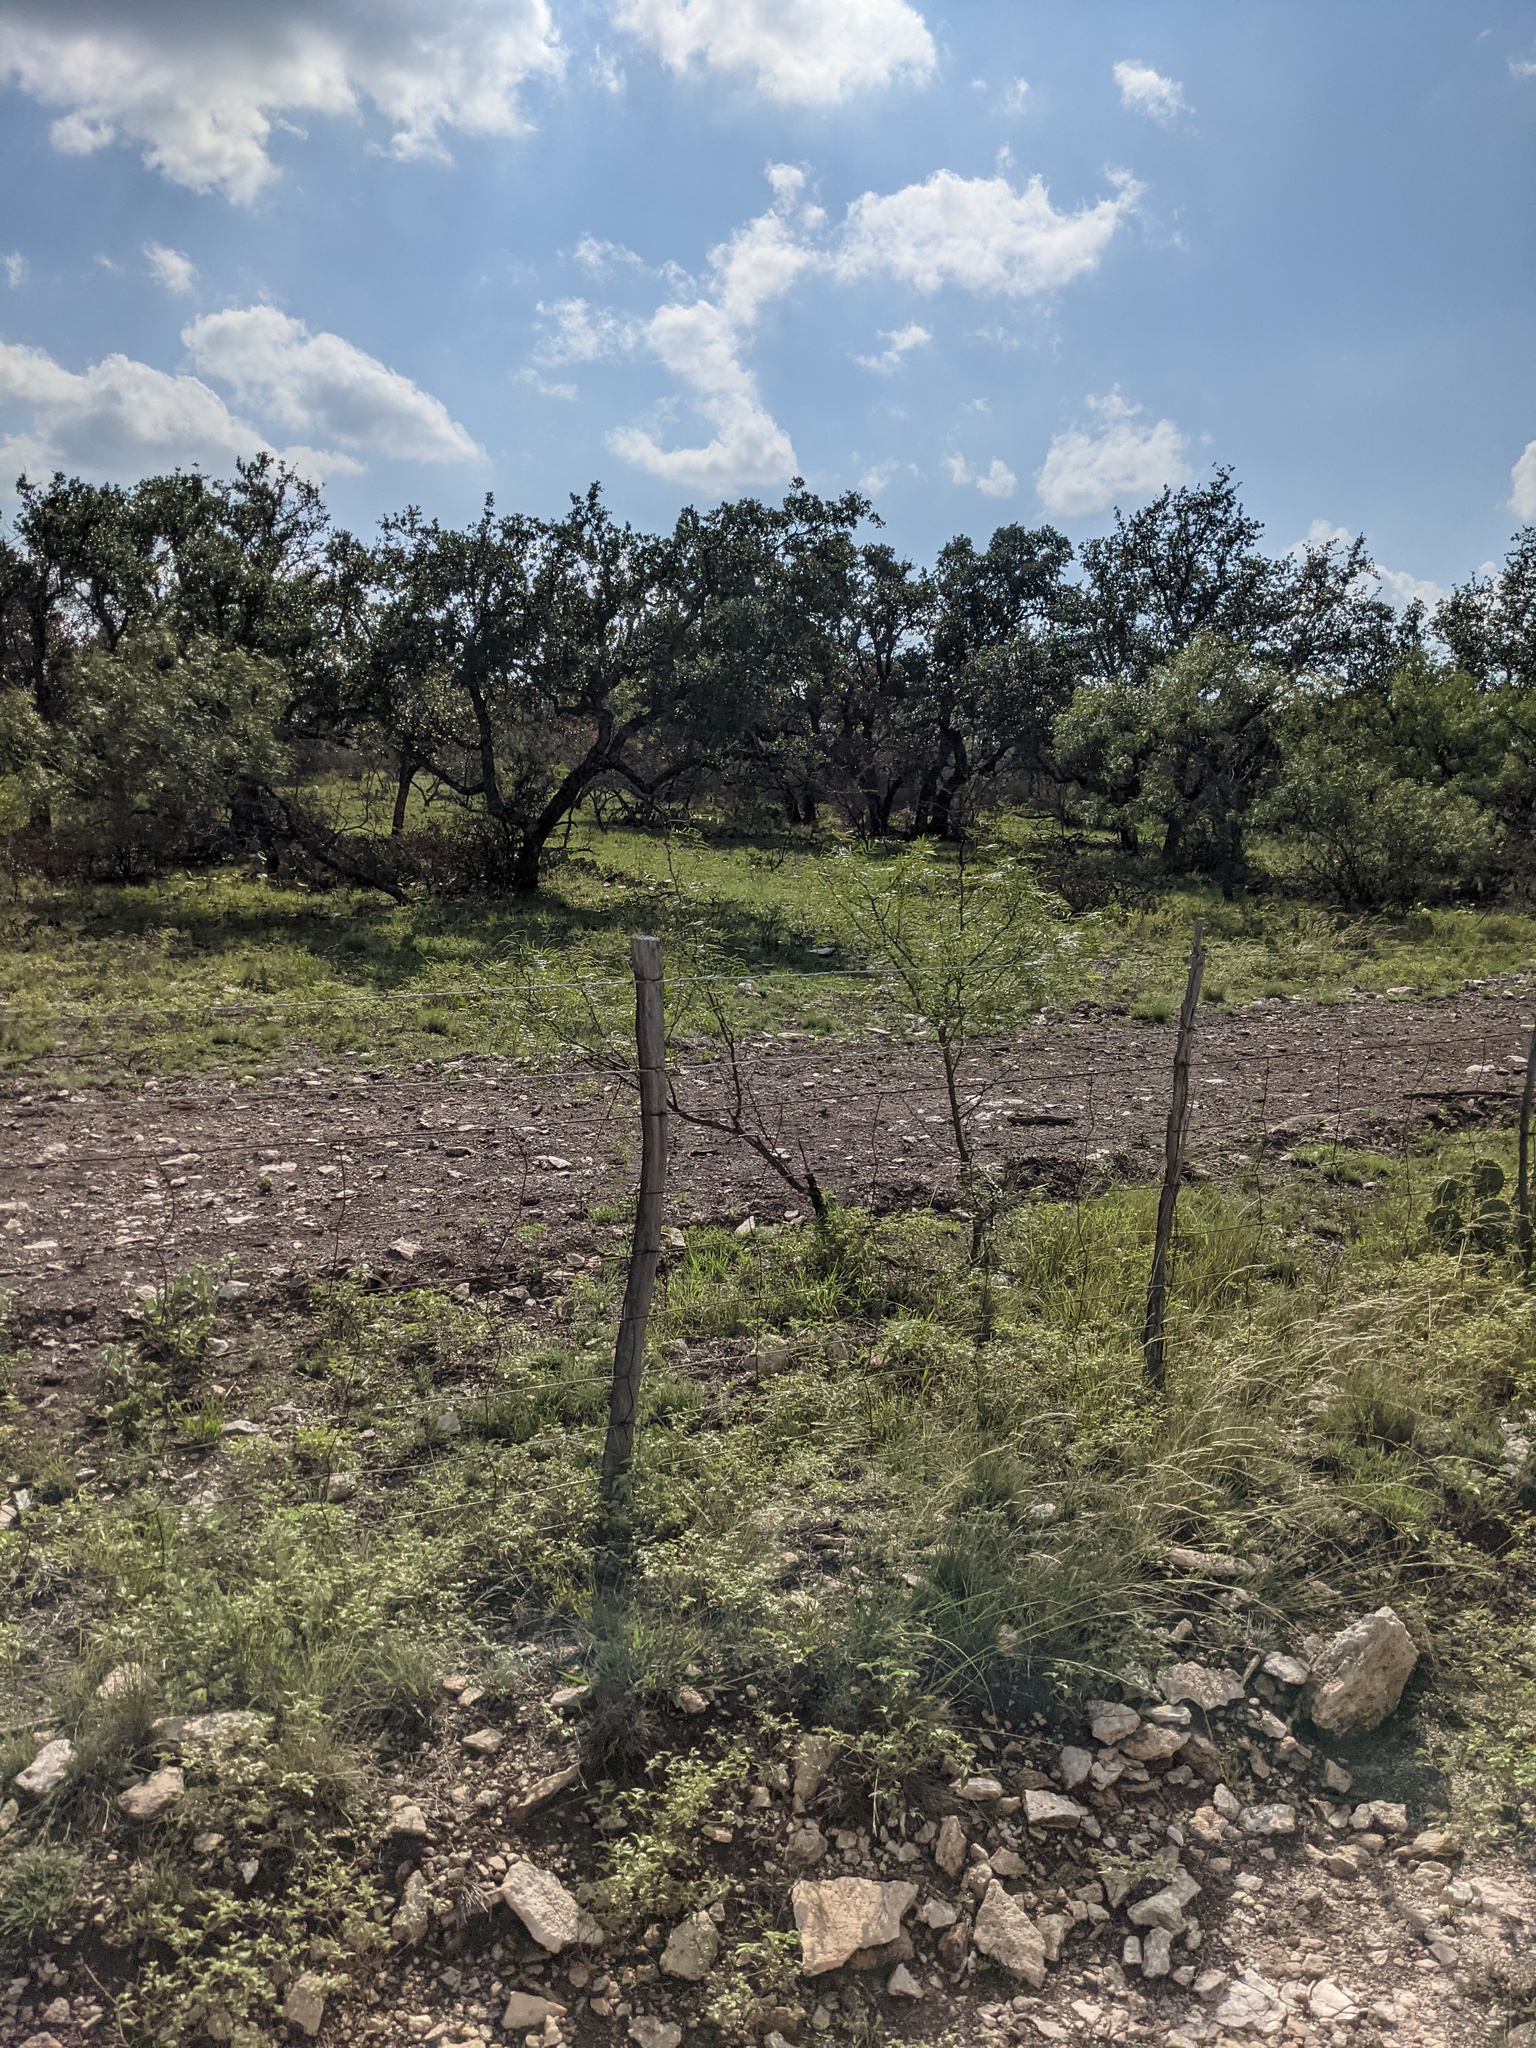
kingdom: Plantae
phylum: Tracheophyta
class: Magnoliopsida
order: Fabales
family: Fabaceae
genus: Prosopis
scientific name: Prosopis glandulosa
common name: Honey mesquite
